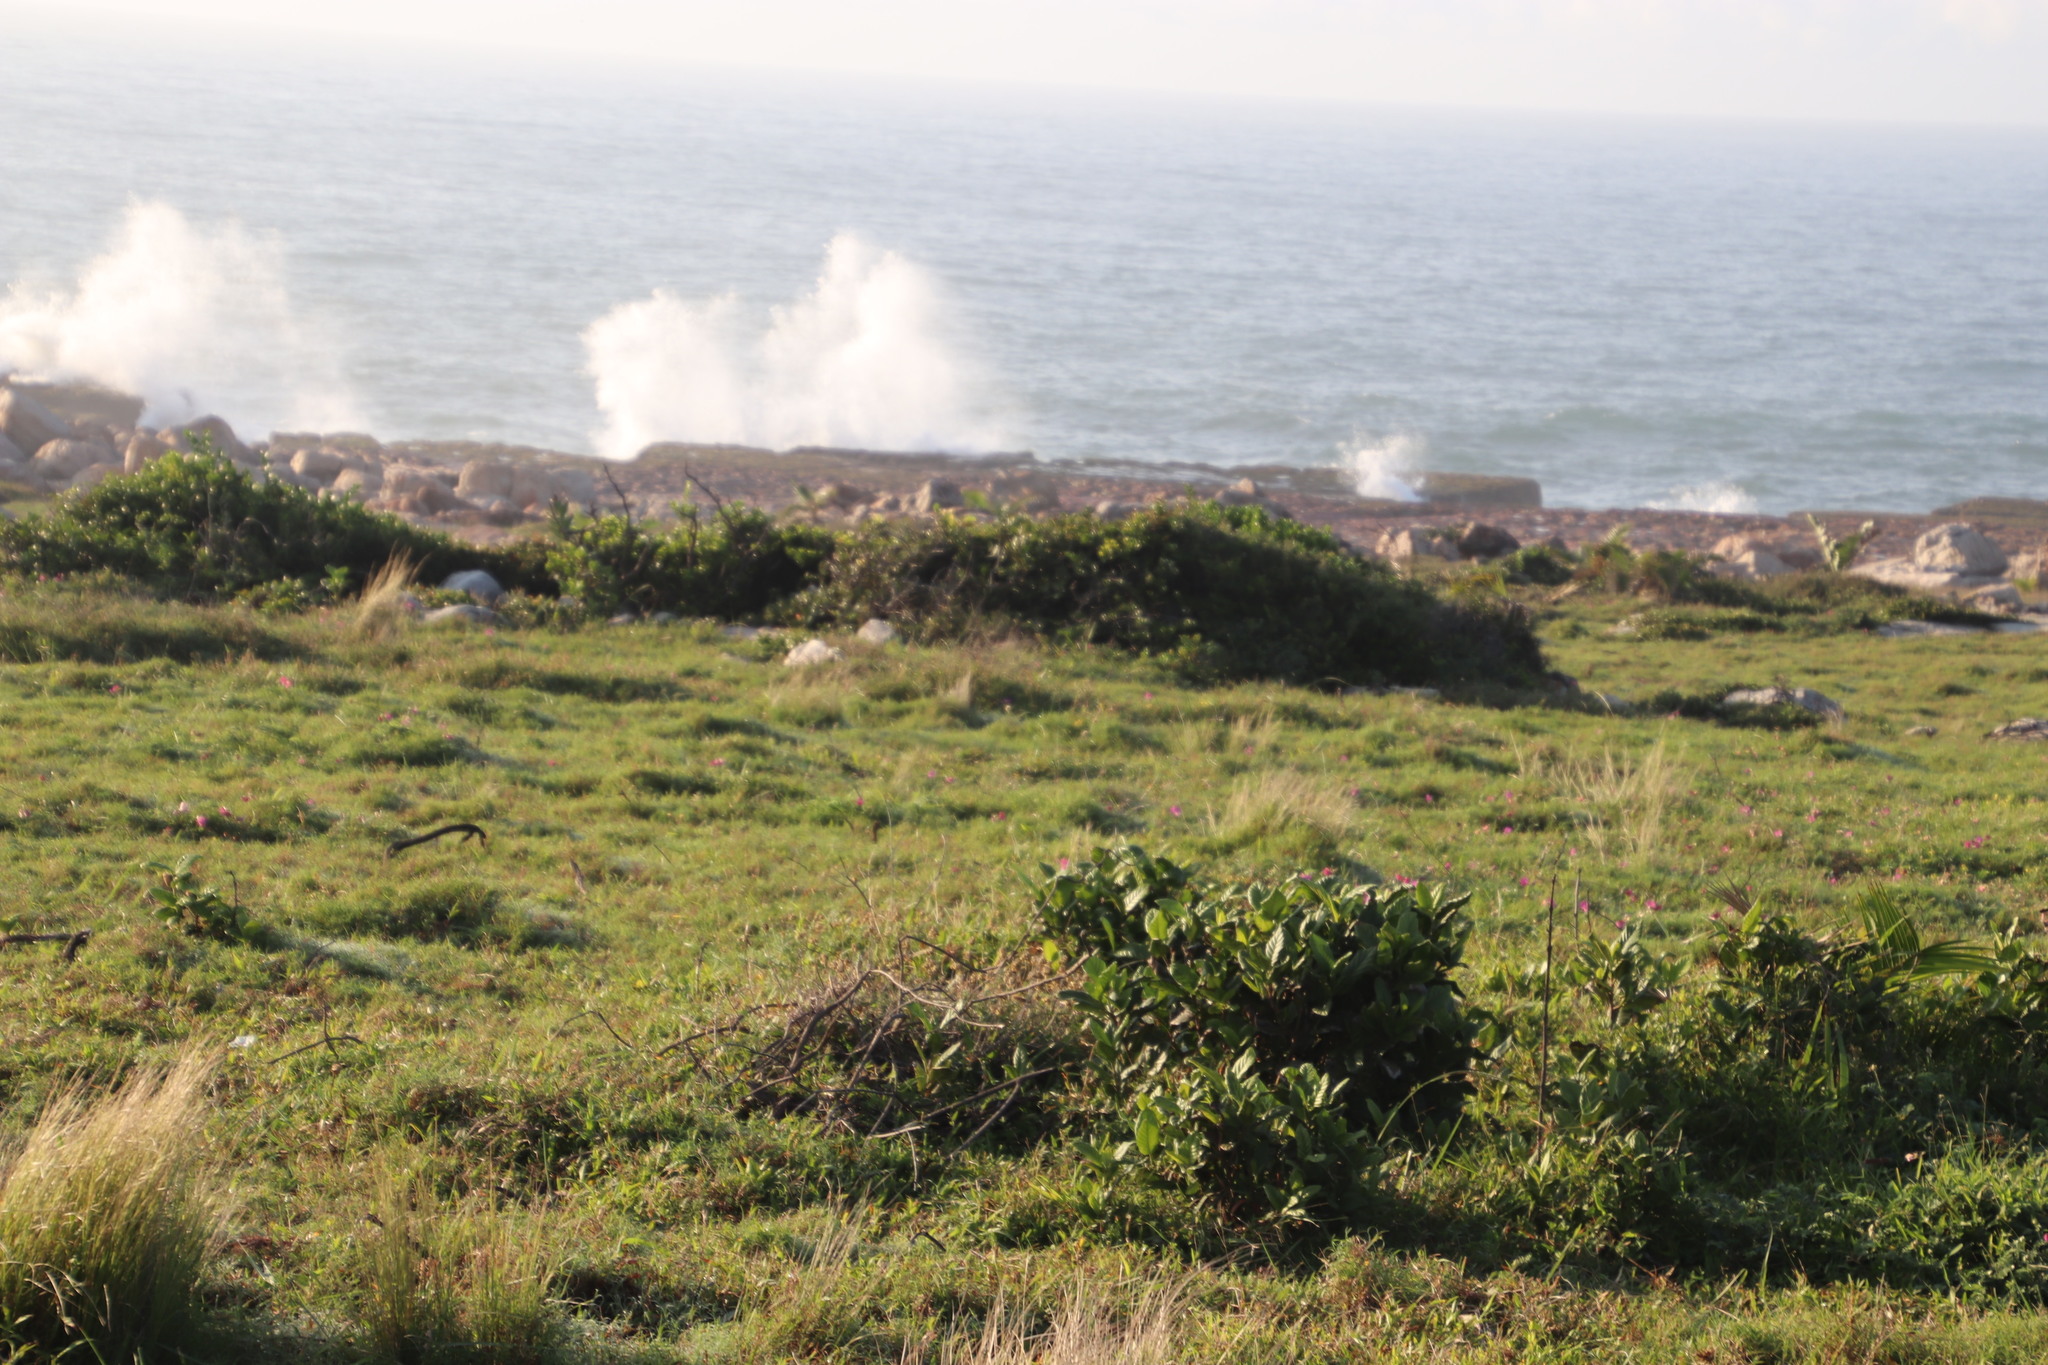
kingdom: Plantae
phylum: Tracheophyta
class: Magnoliopsida
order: Fabales
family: Fabaceae
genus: Chamaecrista
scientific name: Chamaecrista comosa
